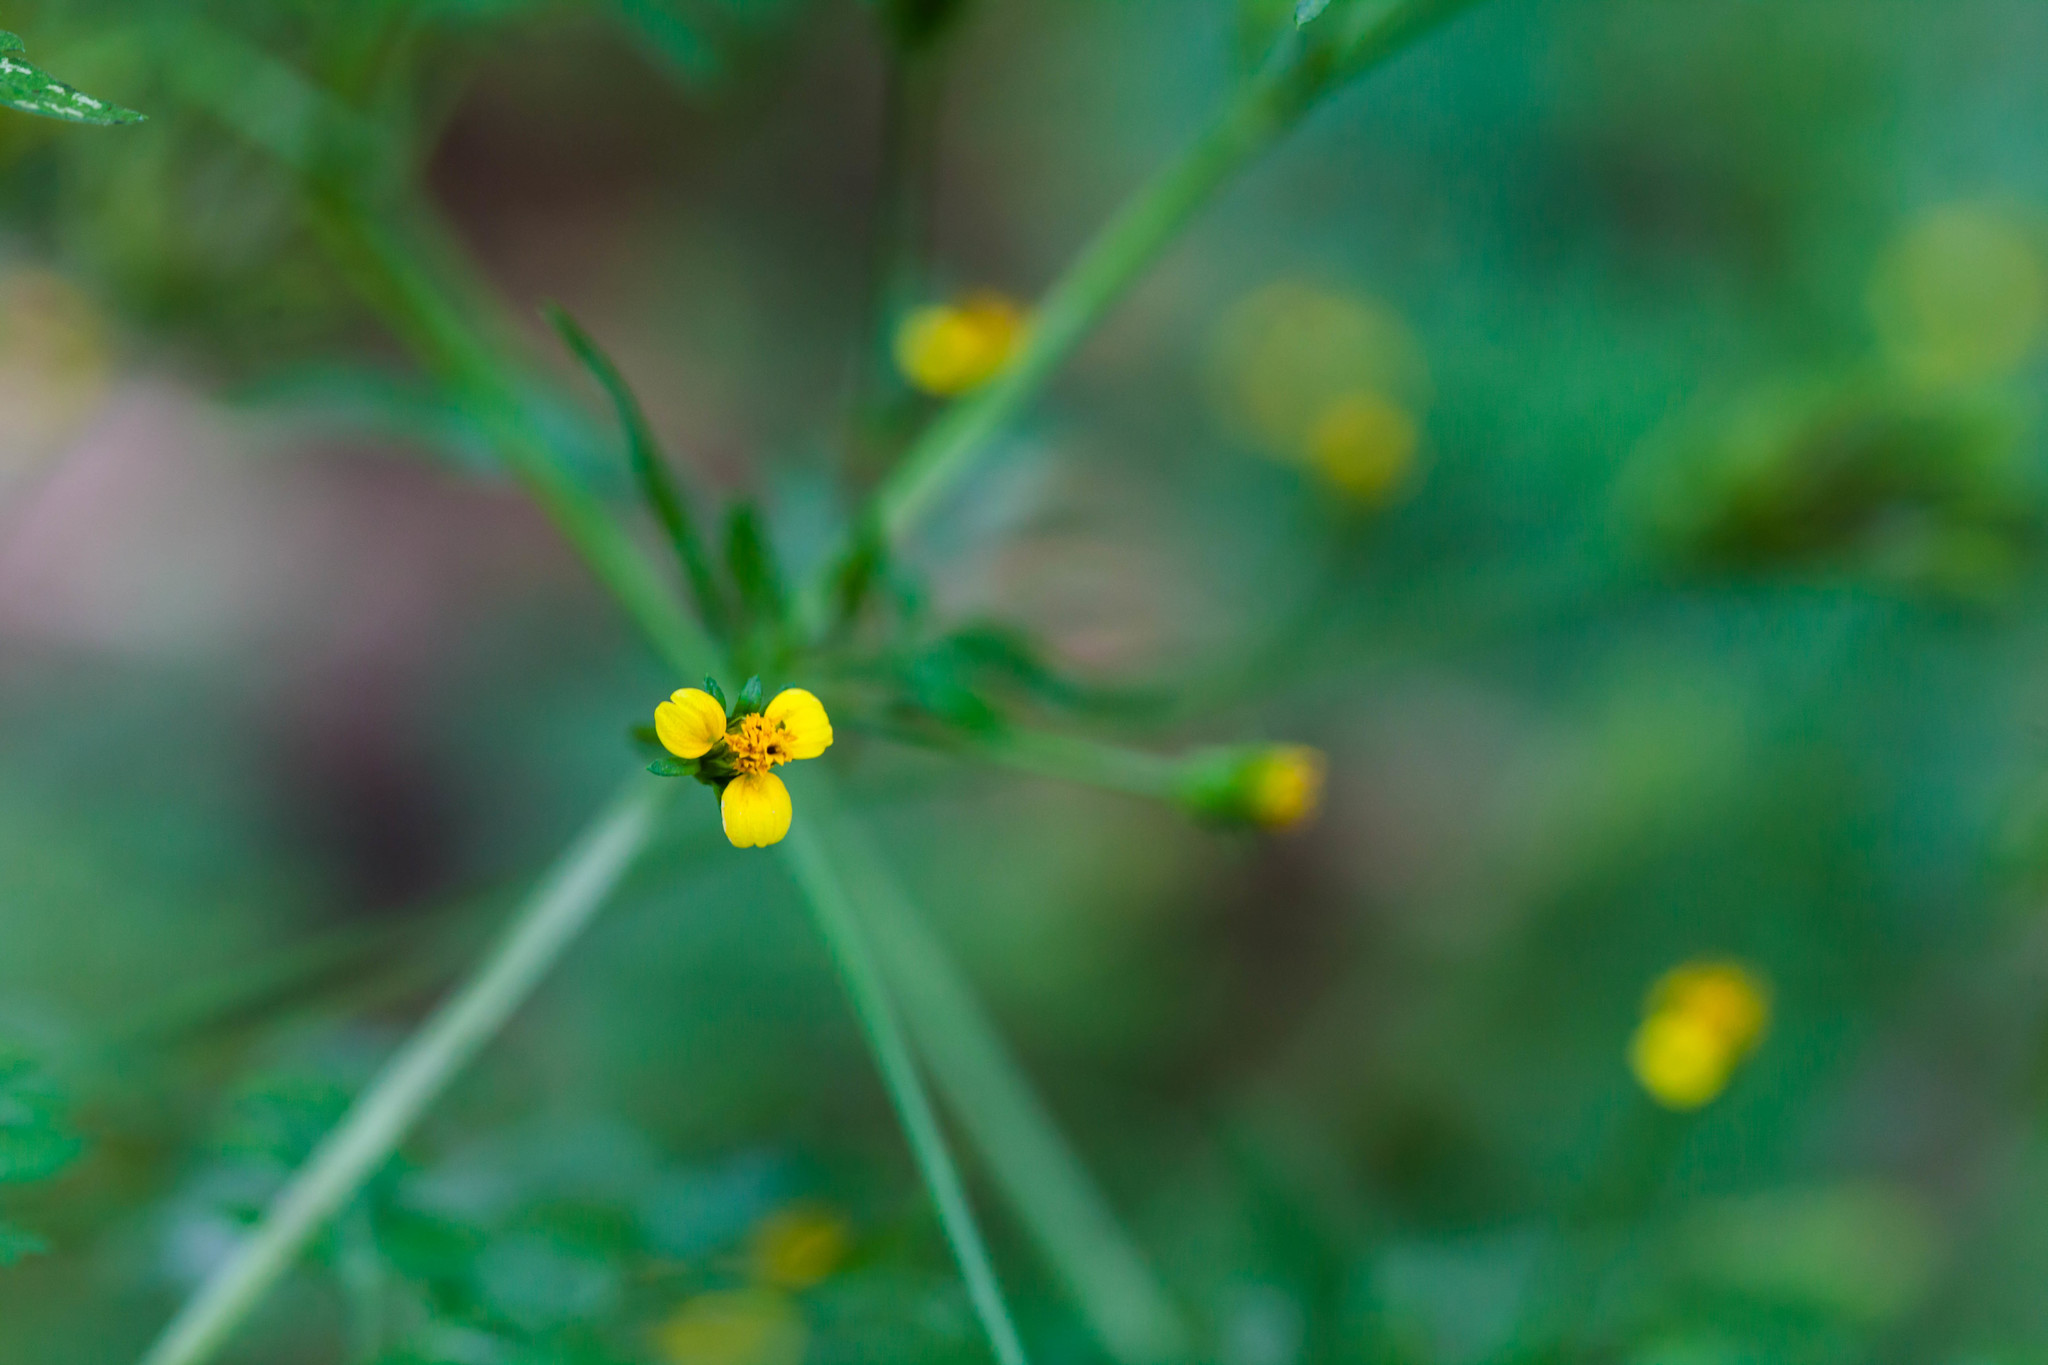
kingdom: Plantae
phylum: Tracheophyta
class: Magnoliopsida
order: Asterales
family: Asteraceae
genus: Bidens
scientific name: Bidens bipinnata
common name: Spanish-needles
